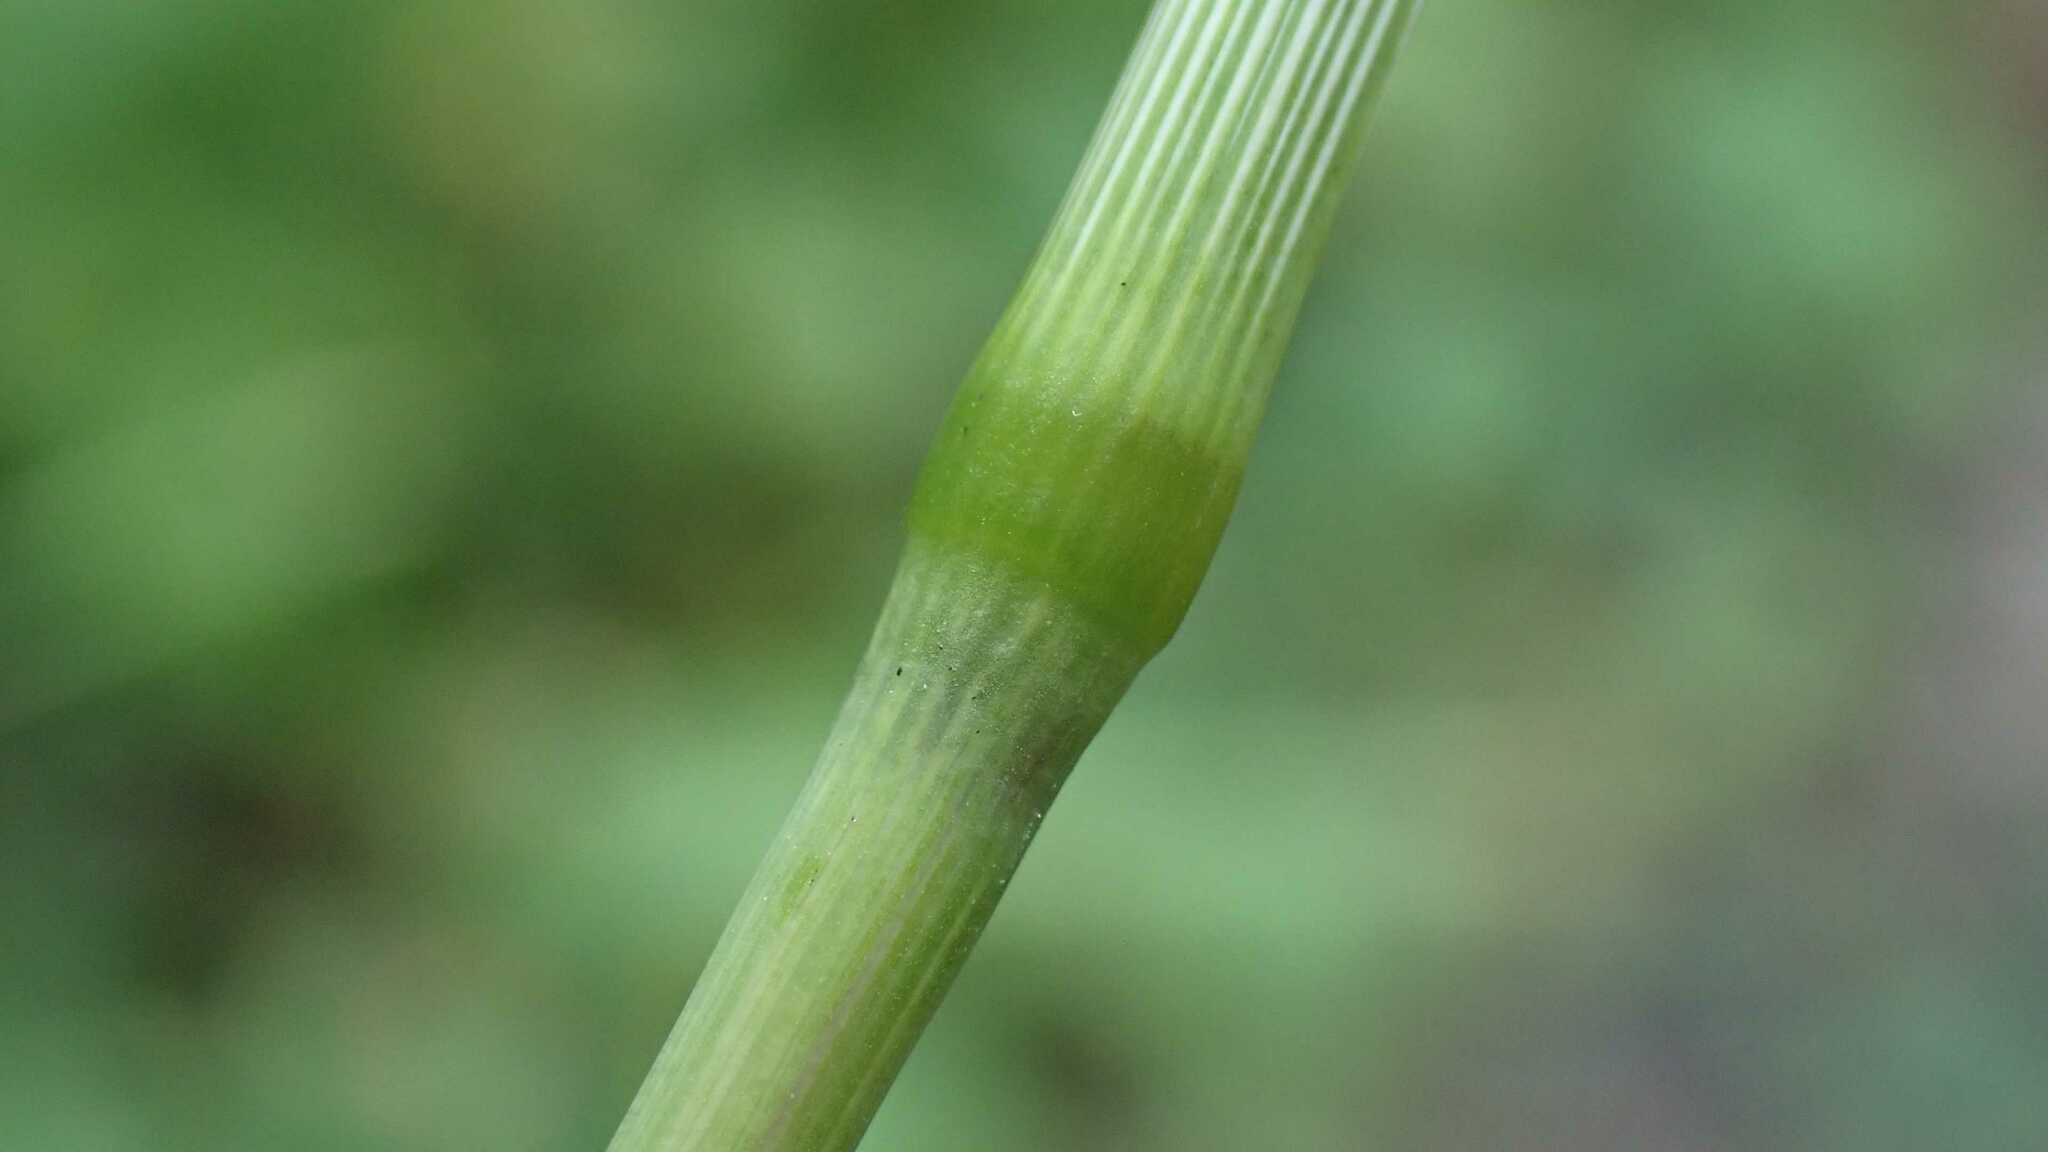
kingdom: Plantae
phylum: Tracheophyta
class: Liliopsida
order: Poales
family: Poaceae
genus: Dactylis
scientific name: Dactylis glomerata
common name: Orchardgrass
